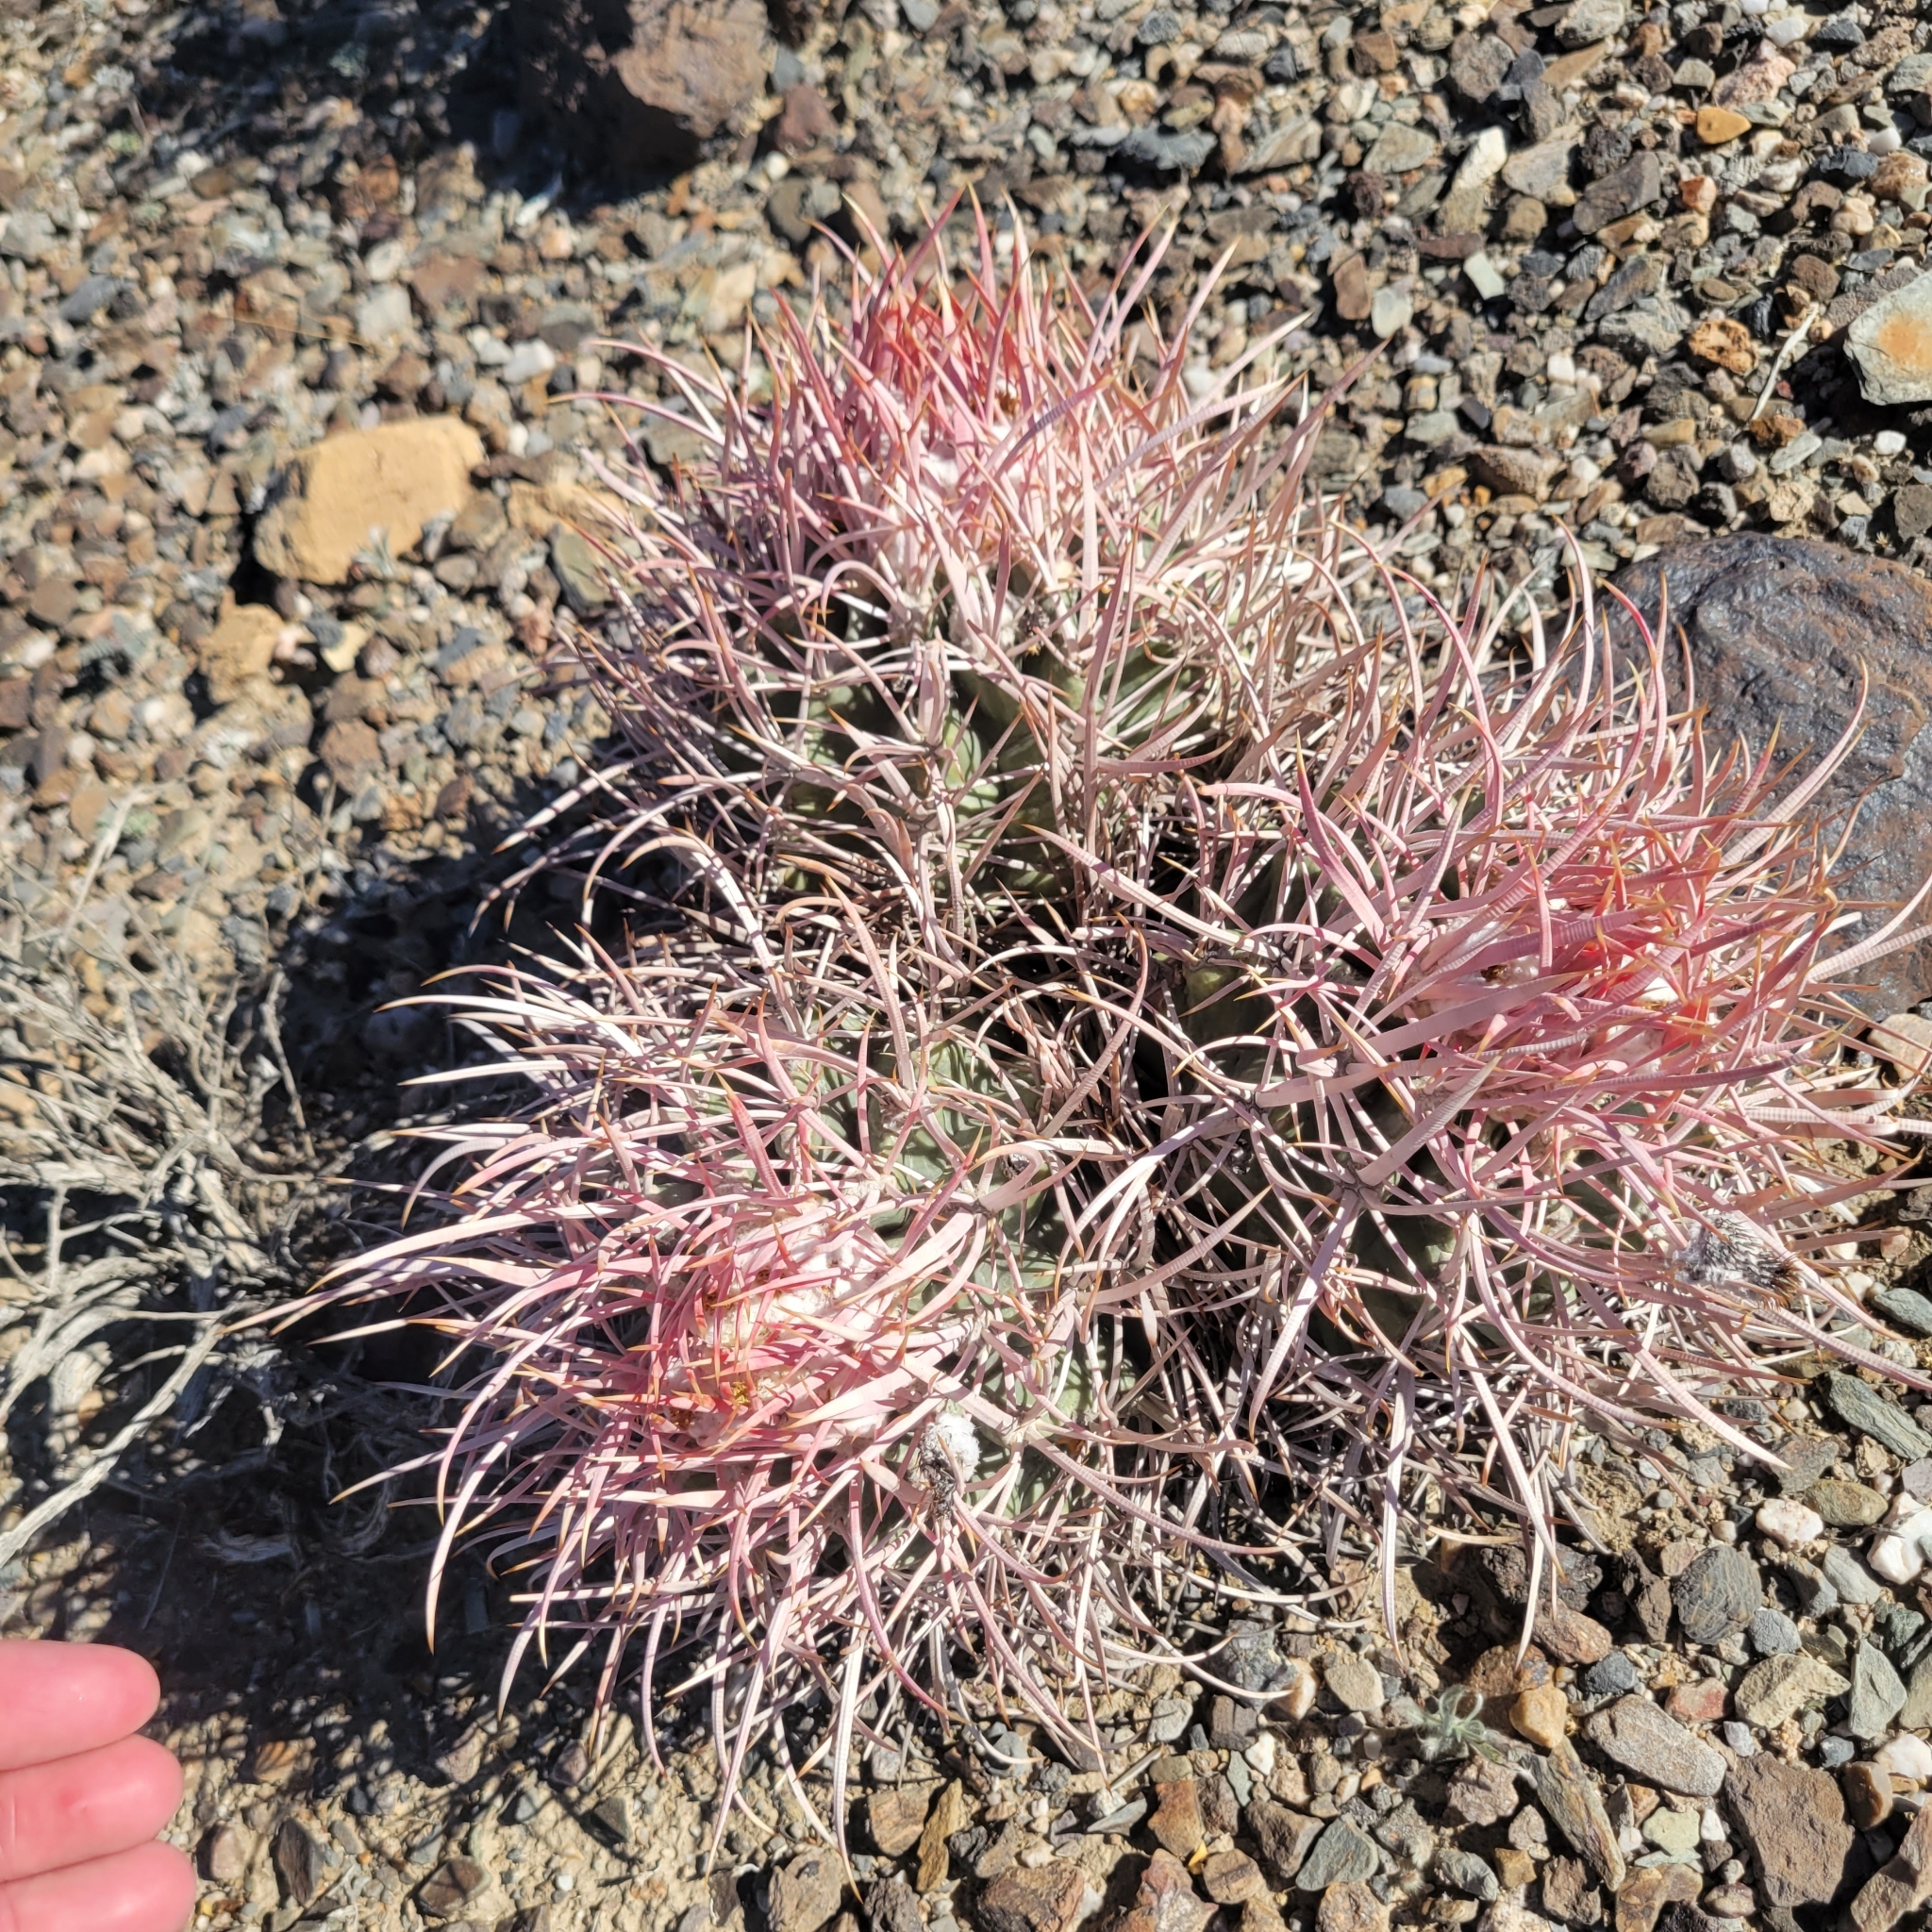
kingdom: Plantae
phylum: Tracheophyta
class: Magnoliopsida
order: Caryophyllales
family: Cactaceae
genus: Echinocactus
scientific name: Echinocactus polycephalus
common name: Cottontop cactus
